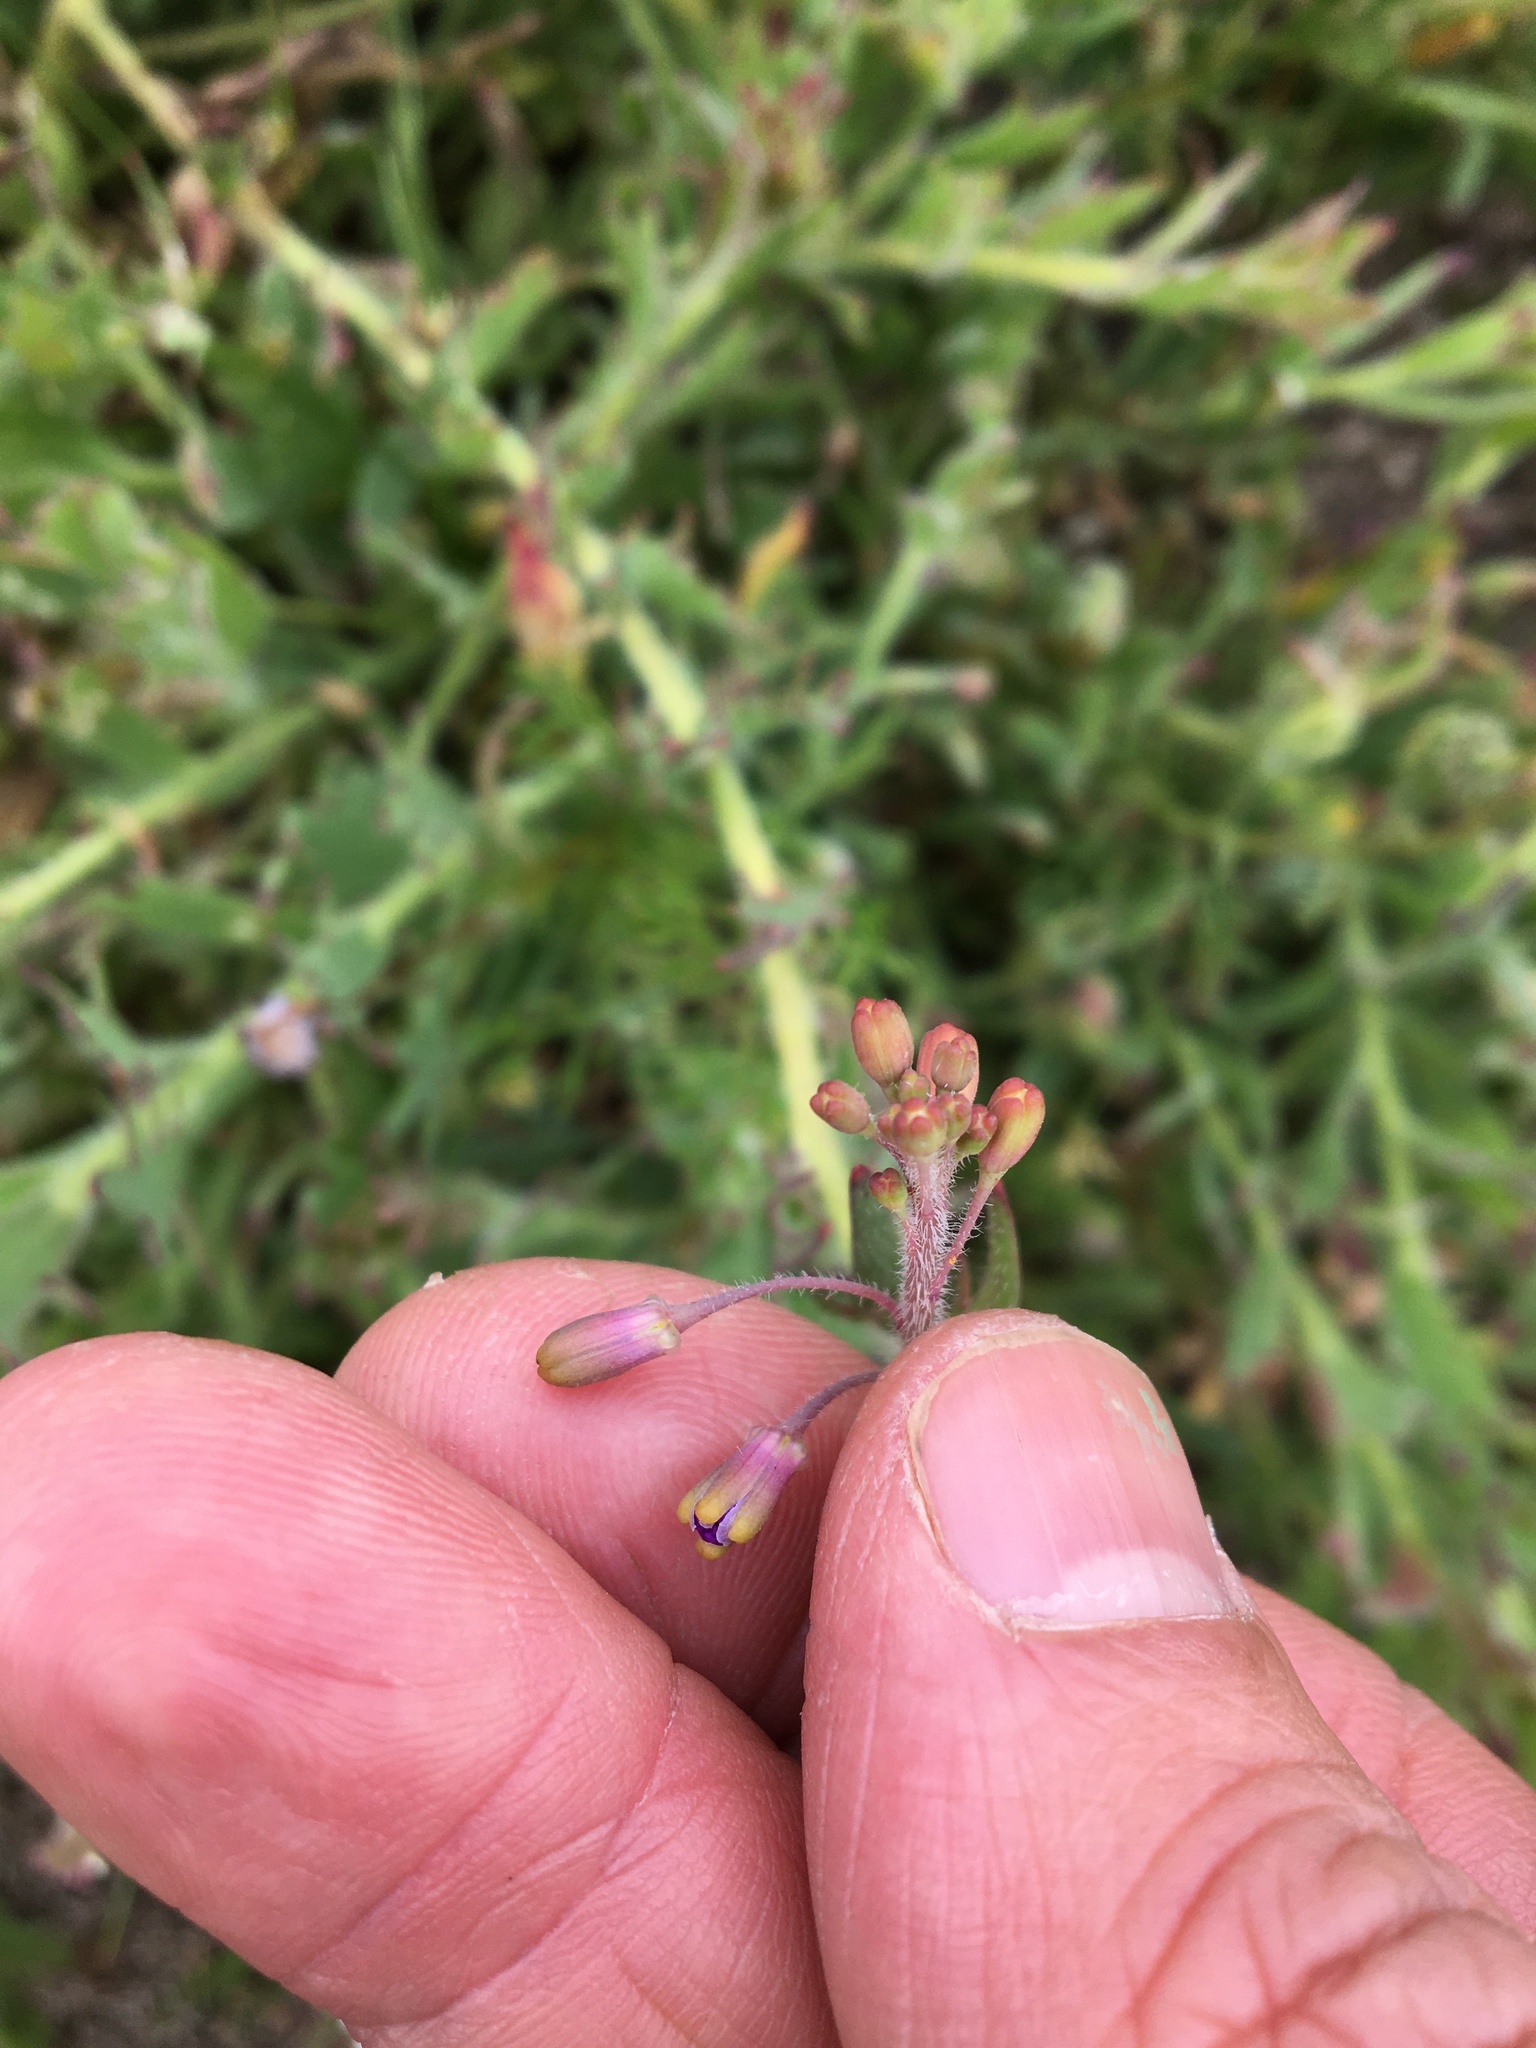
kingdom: Plantae
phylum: Tracheophyta
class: Magnoliopsida
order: Brassicales
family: Brassicaceae
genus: Heliophila
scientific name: Heliophila africana
